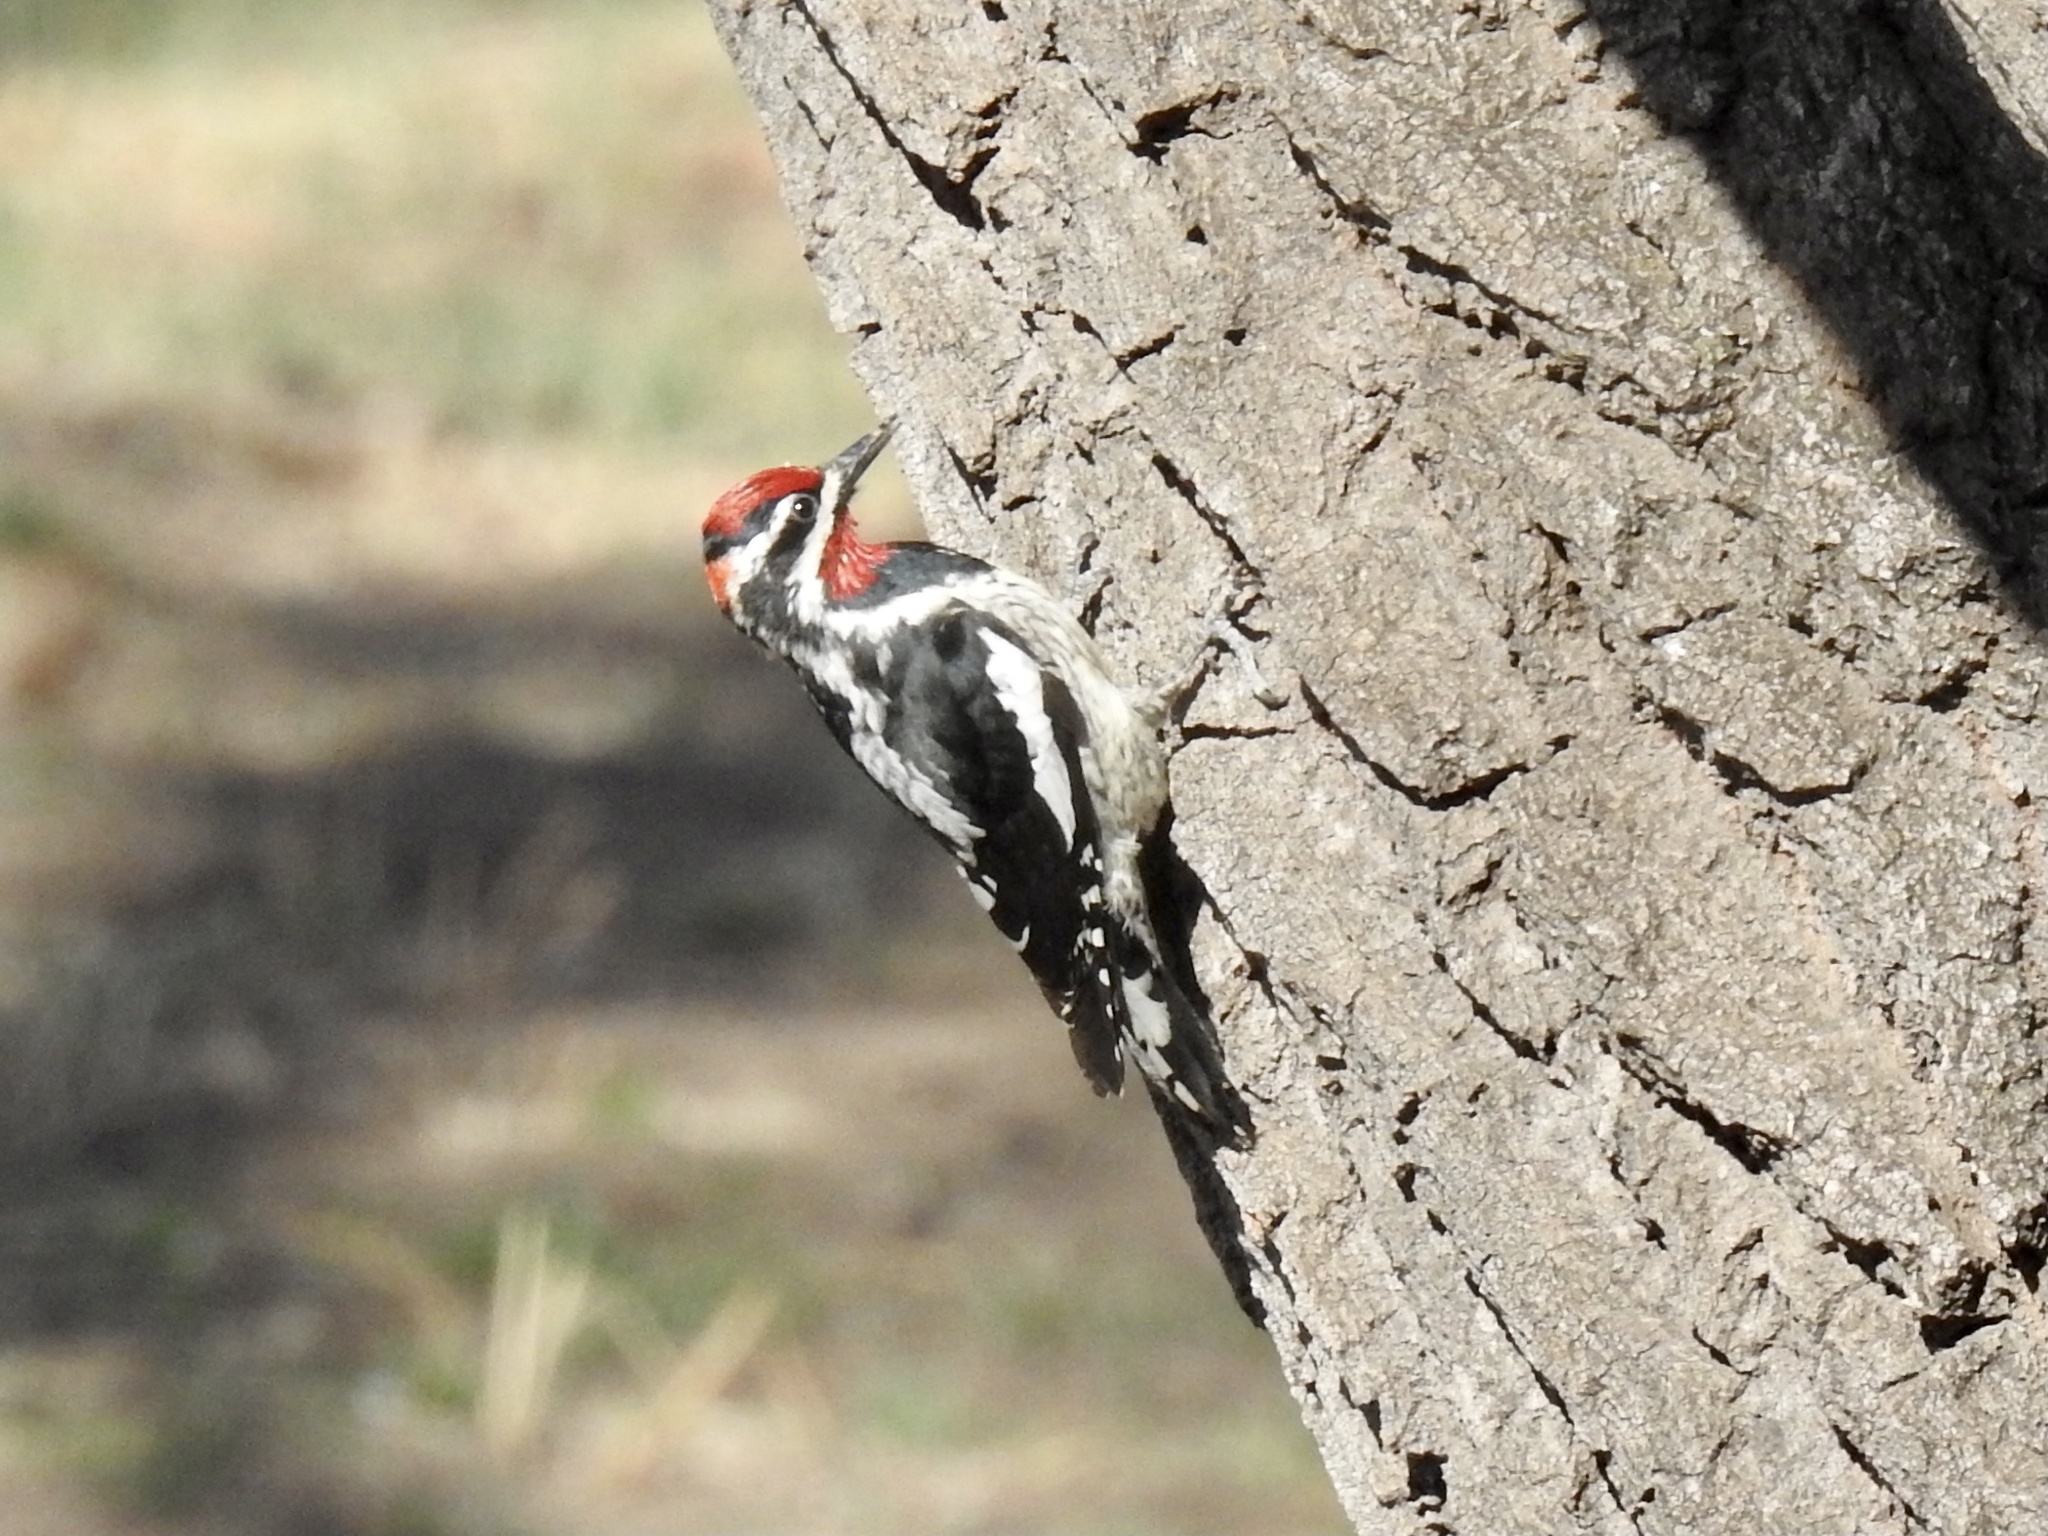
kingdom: Animalia
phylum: Chordata
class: Aves
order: Piciformes
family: Picidae
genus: Sphyrapicus
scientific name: Sphyrapicus nuchalis
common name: Red-naped sapsucker
